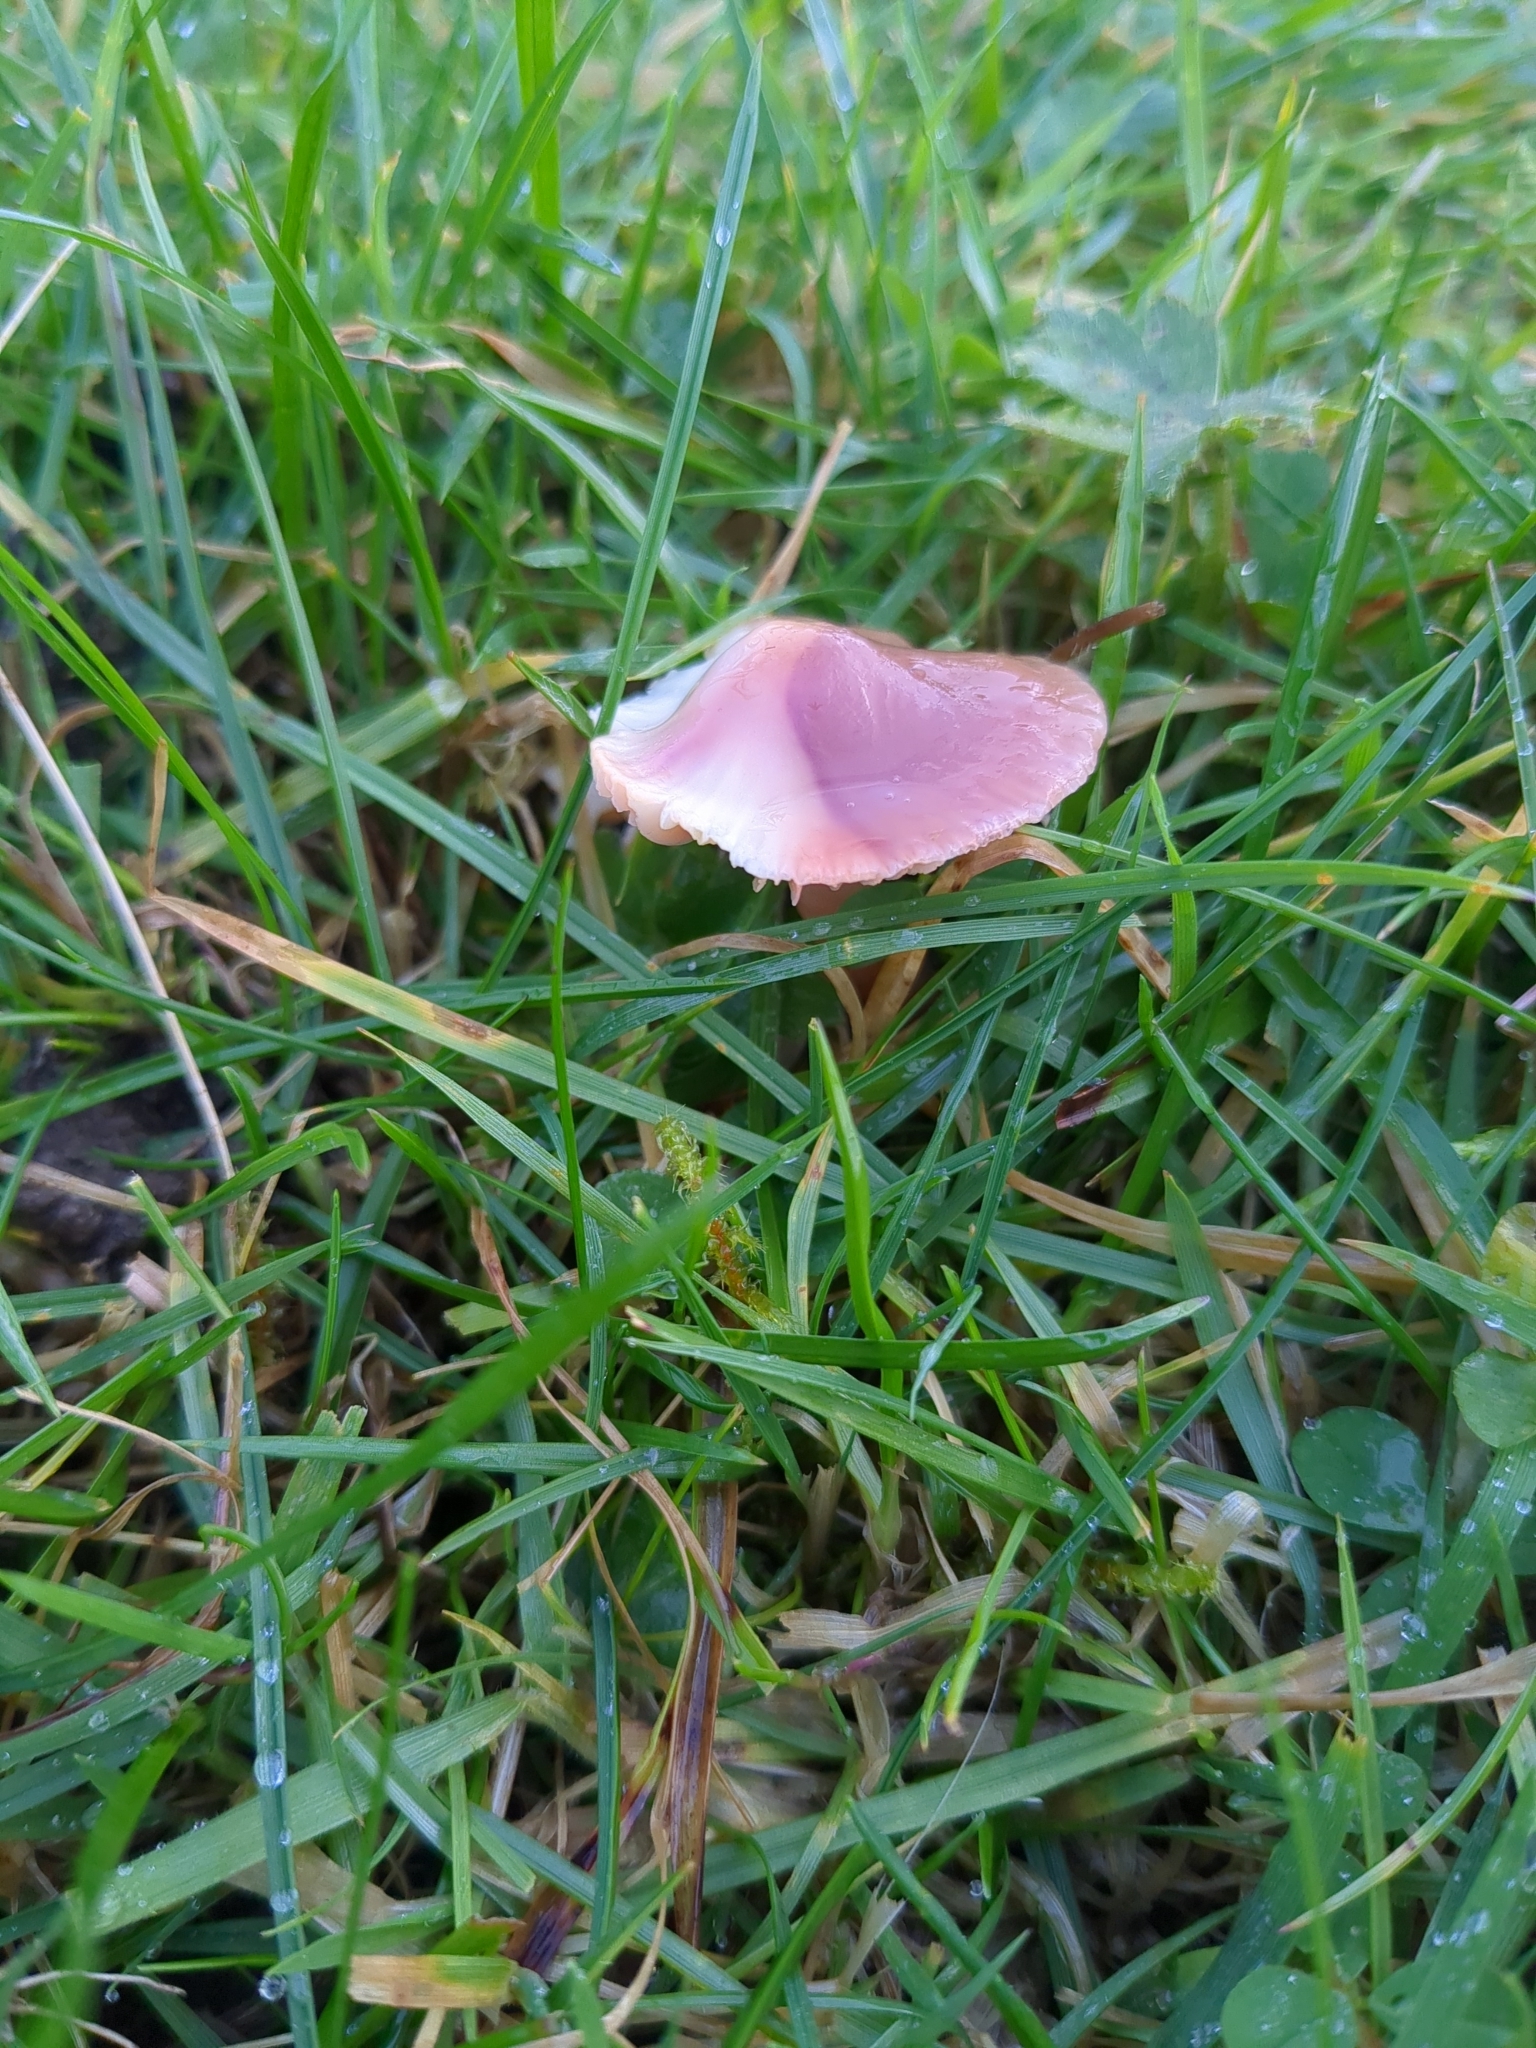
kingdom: Fungi
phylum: Basidiomycota
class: Agaricomycetes
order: Agaricales
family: Hygrophoraceae
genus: Gliophorus
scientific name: Gliophorus reginae
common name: Jubilee waxcap
